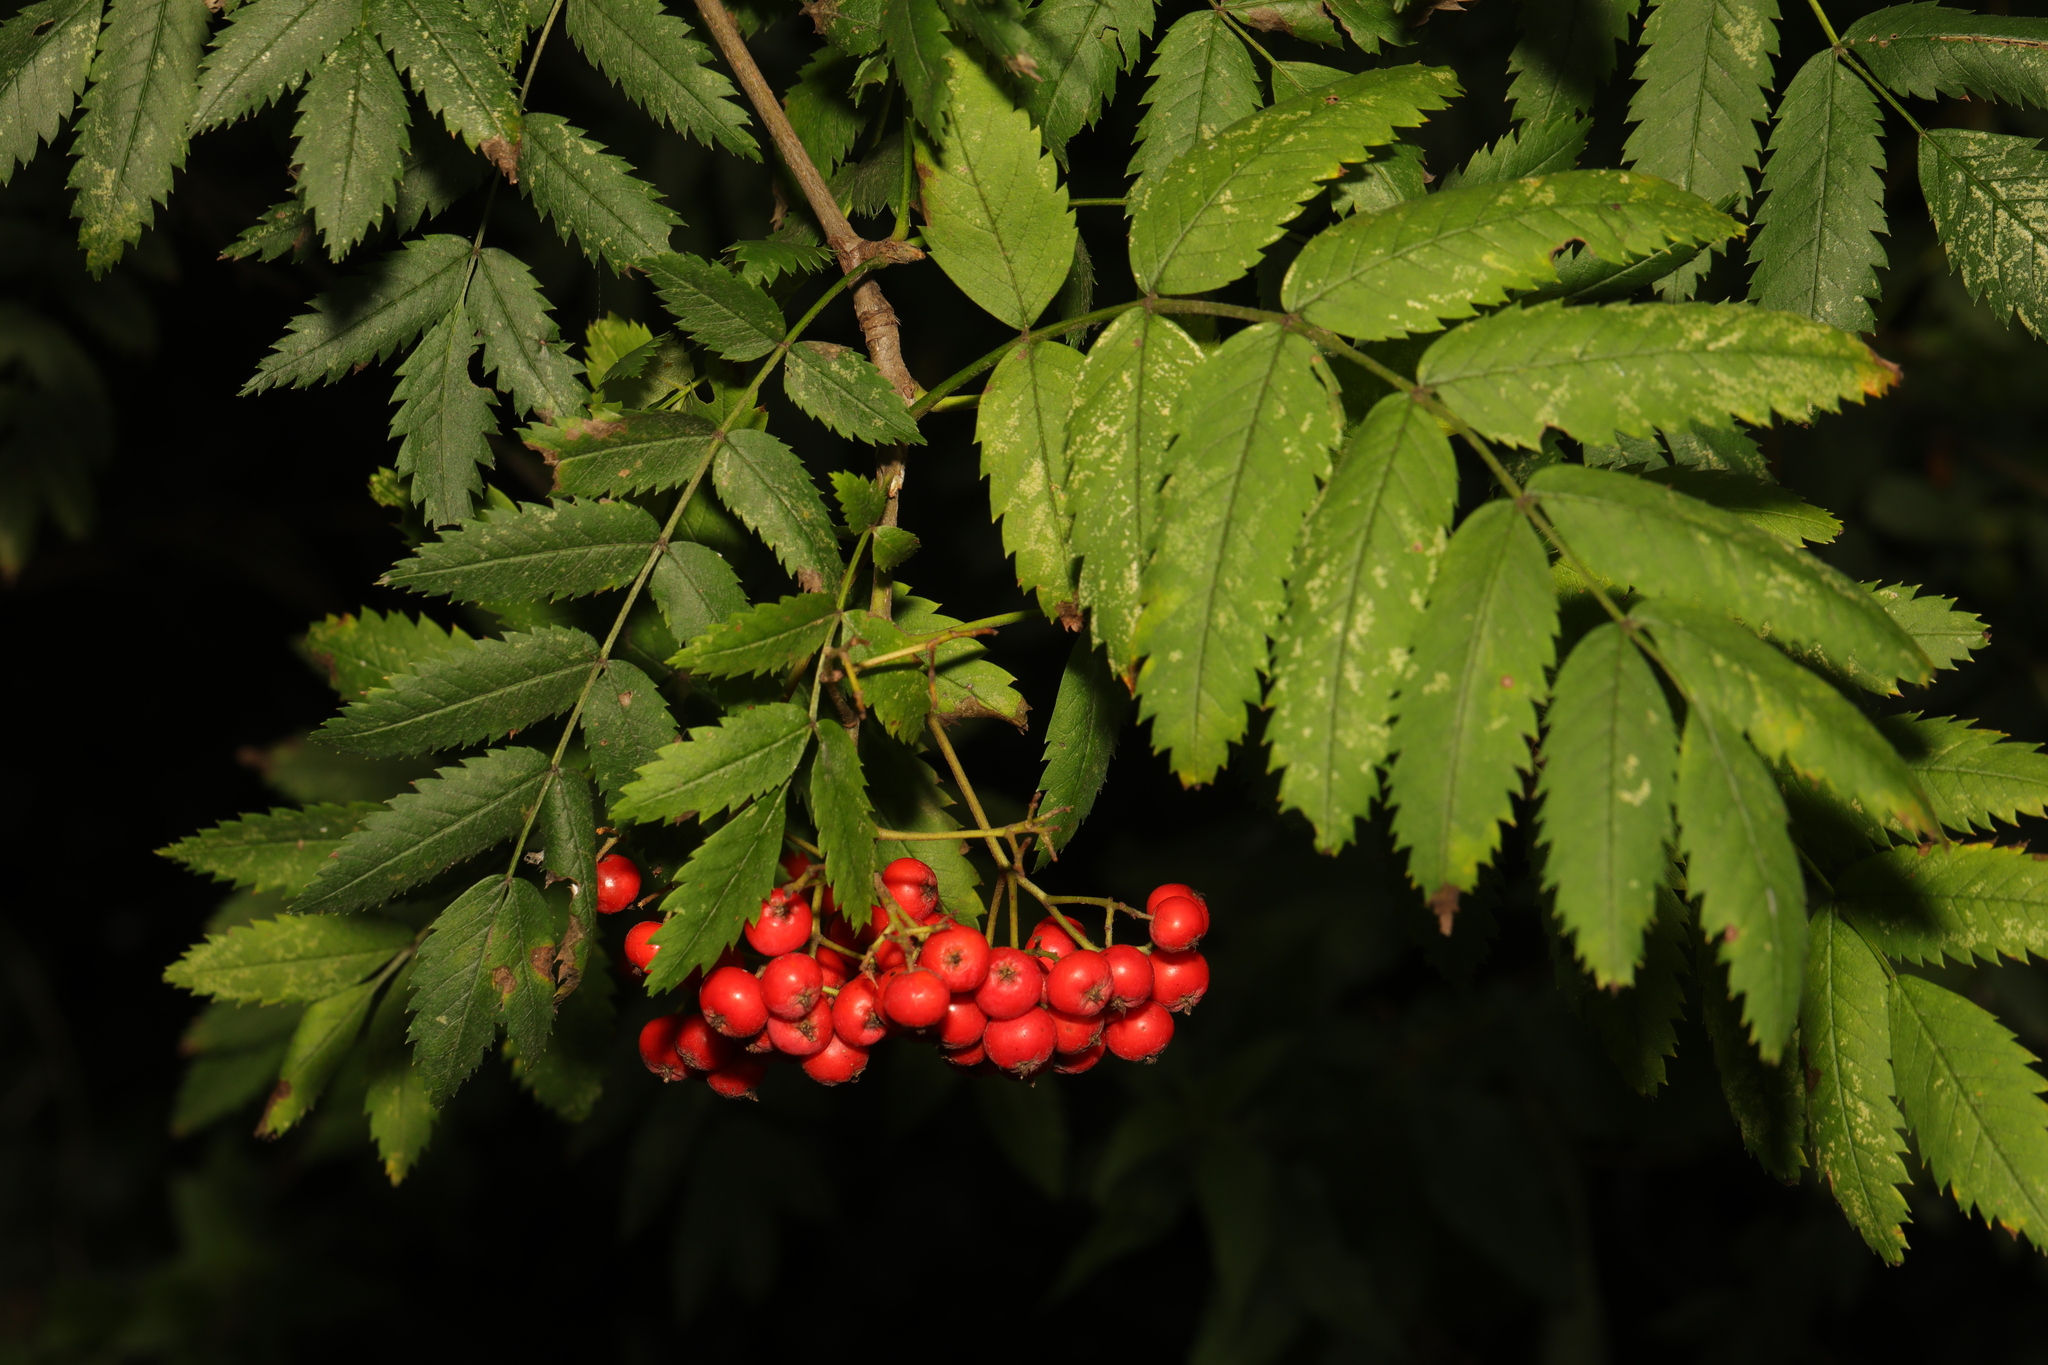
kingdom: Plantae
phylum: Tracheophyta
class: Magnoliopsida
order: Rosales
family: Rosaceae
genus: Sorbus
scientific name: Sorbus aucuparia
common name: Rowan
